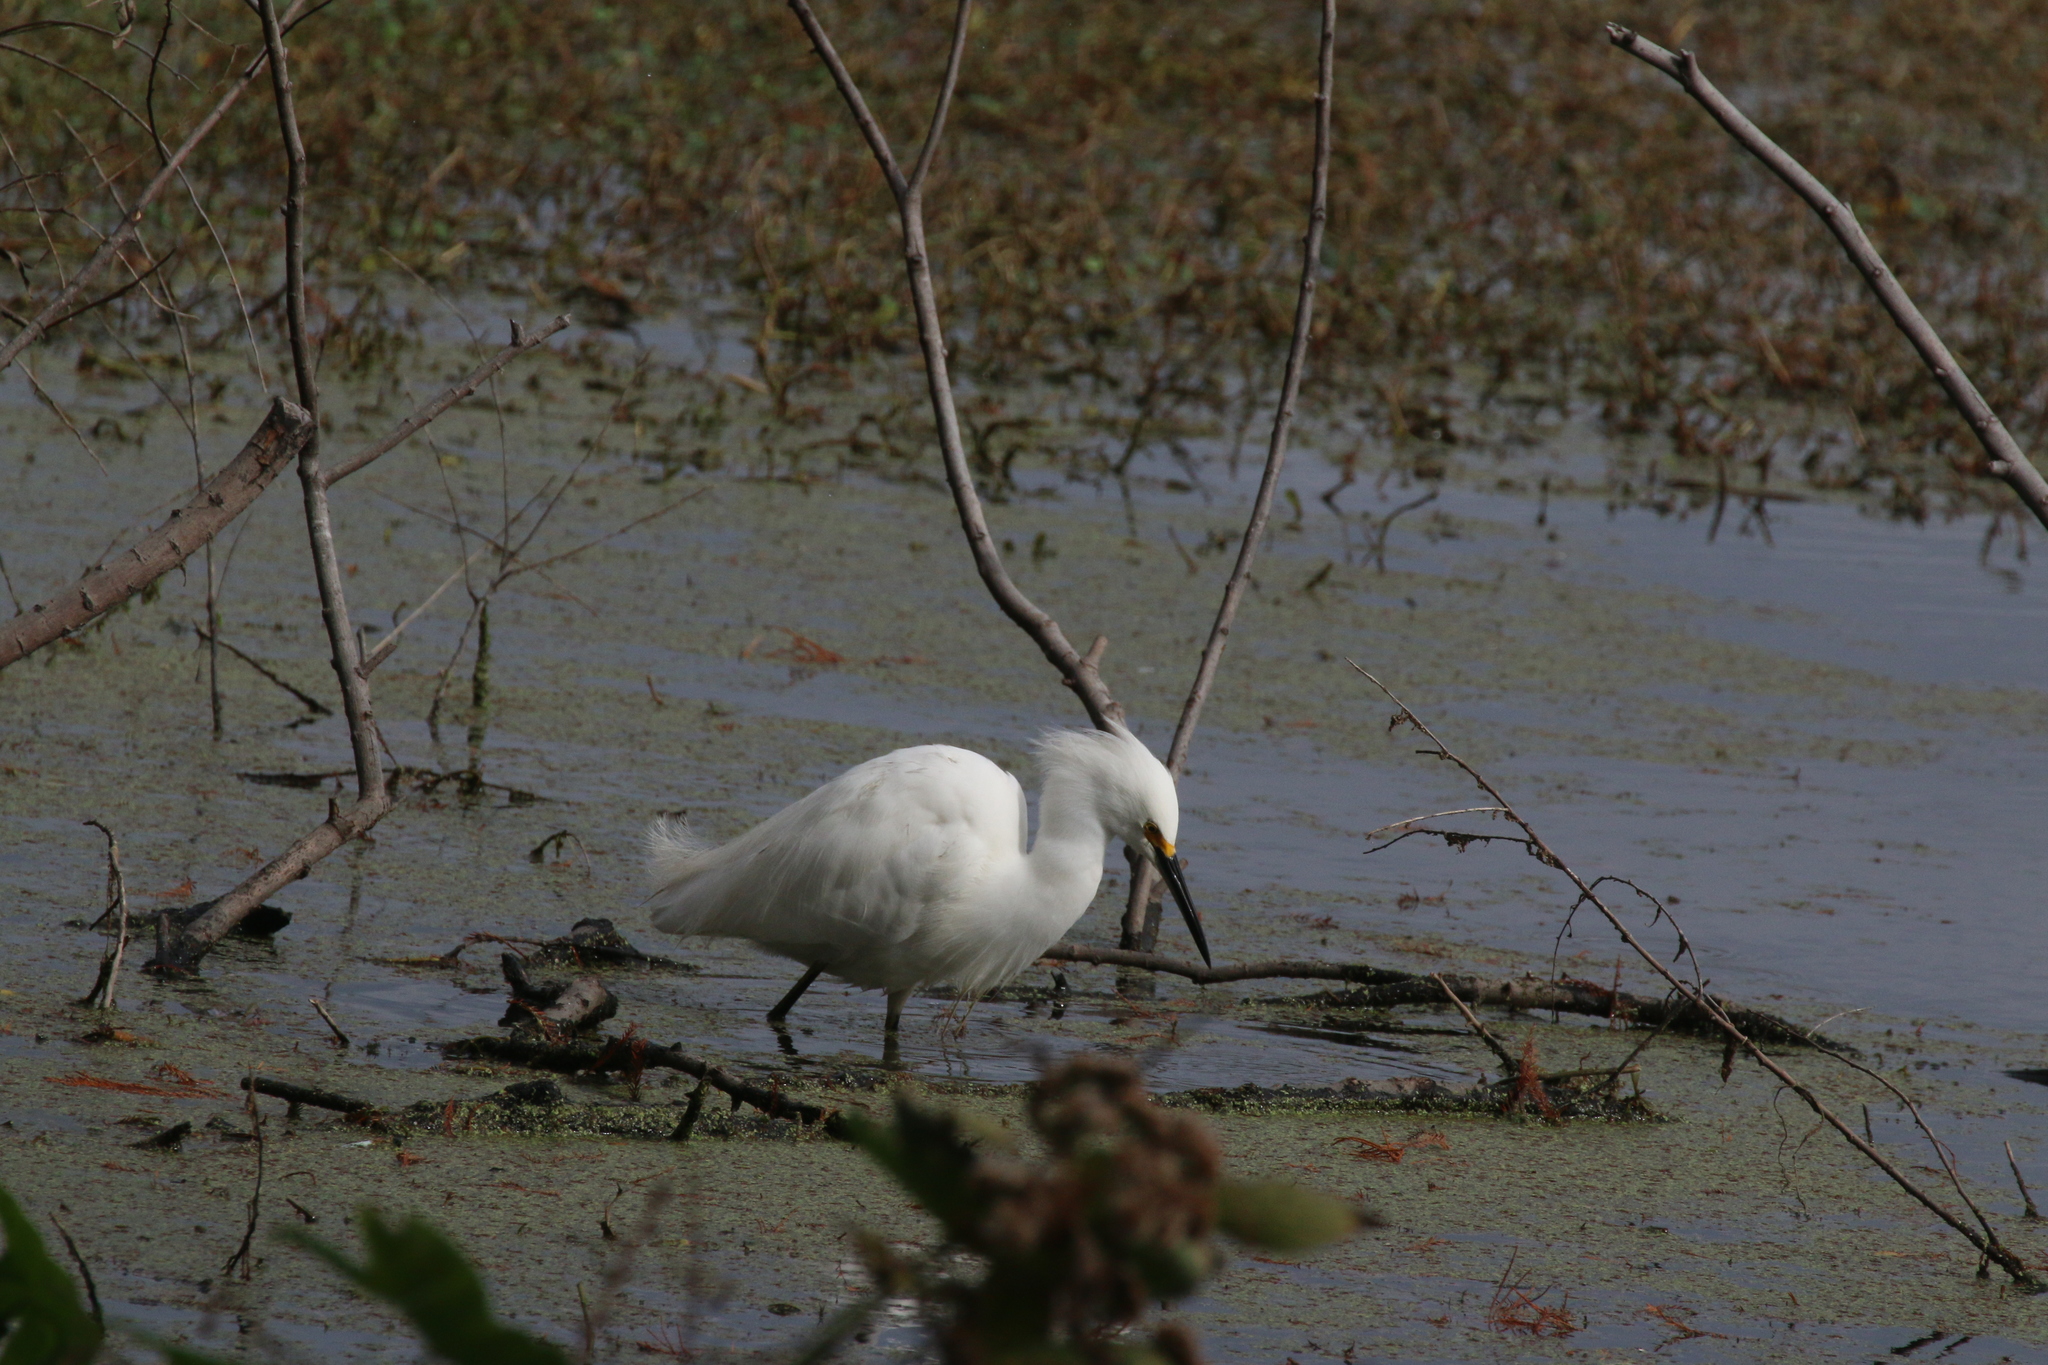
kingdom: Animalia
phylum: Chordata
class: Aves
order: Pelecaniformes
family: Ardeidae
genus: Egretta
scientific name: Egretta thula
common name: Snowy egret
